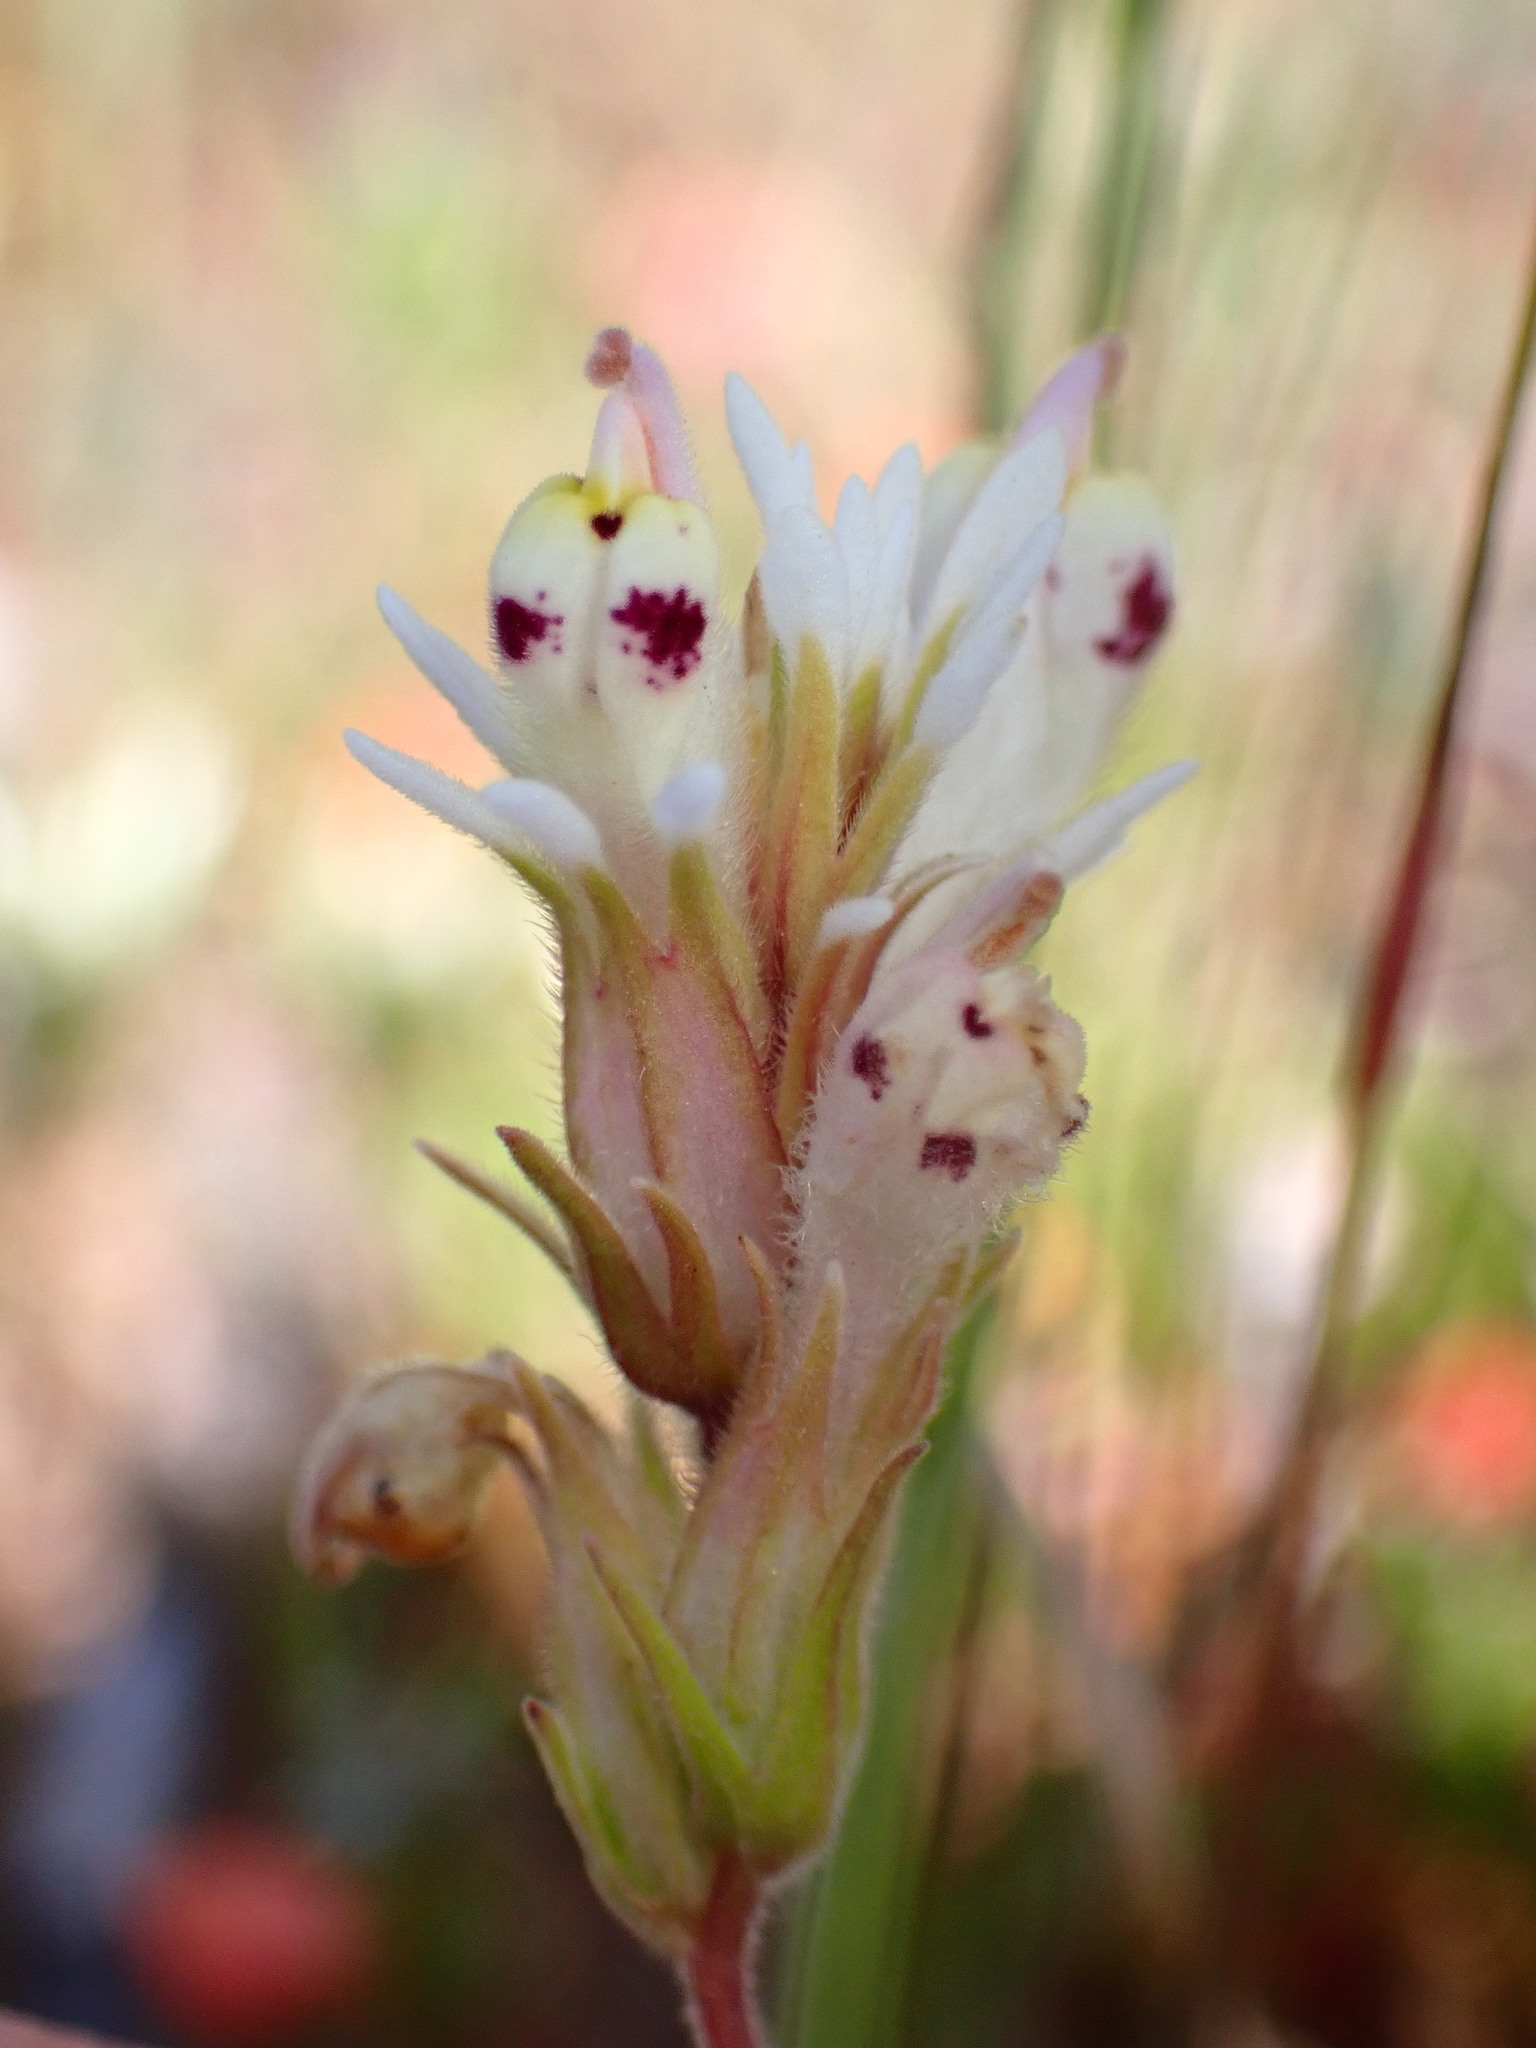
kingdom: Plantae
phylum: Tracheophyta
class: Magnoliopsida
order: Lamiales
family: Orobanchaceae
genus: Castilleja
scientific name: Castilleja densiflora
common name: Dense-flower indian paintbrush
